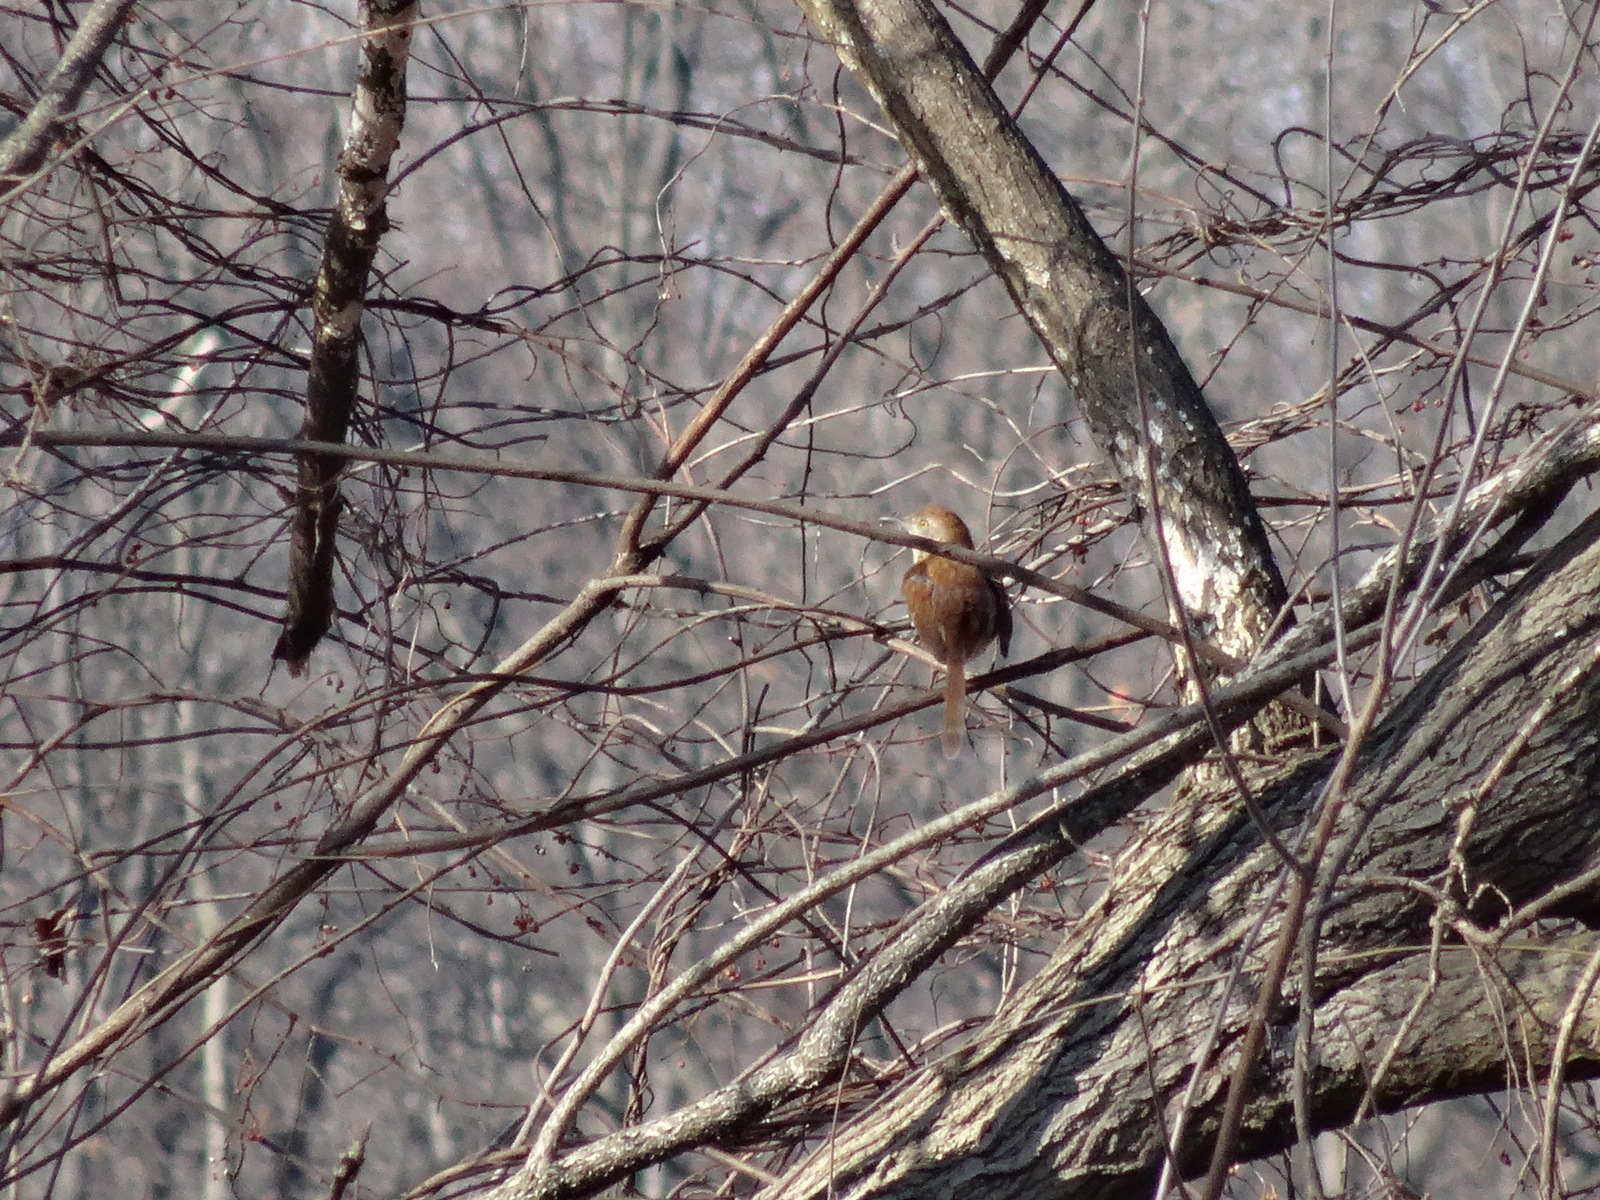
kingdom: Animalia
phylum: Chordata
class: Aves
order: Passeriformes
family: Mimidae
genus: Toxostoma
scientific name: Toxostoma rufum
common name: Brown thrasher
